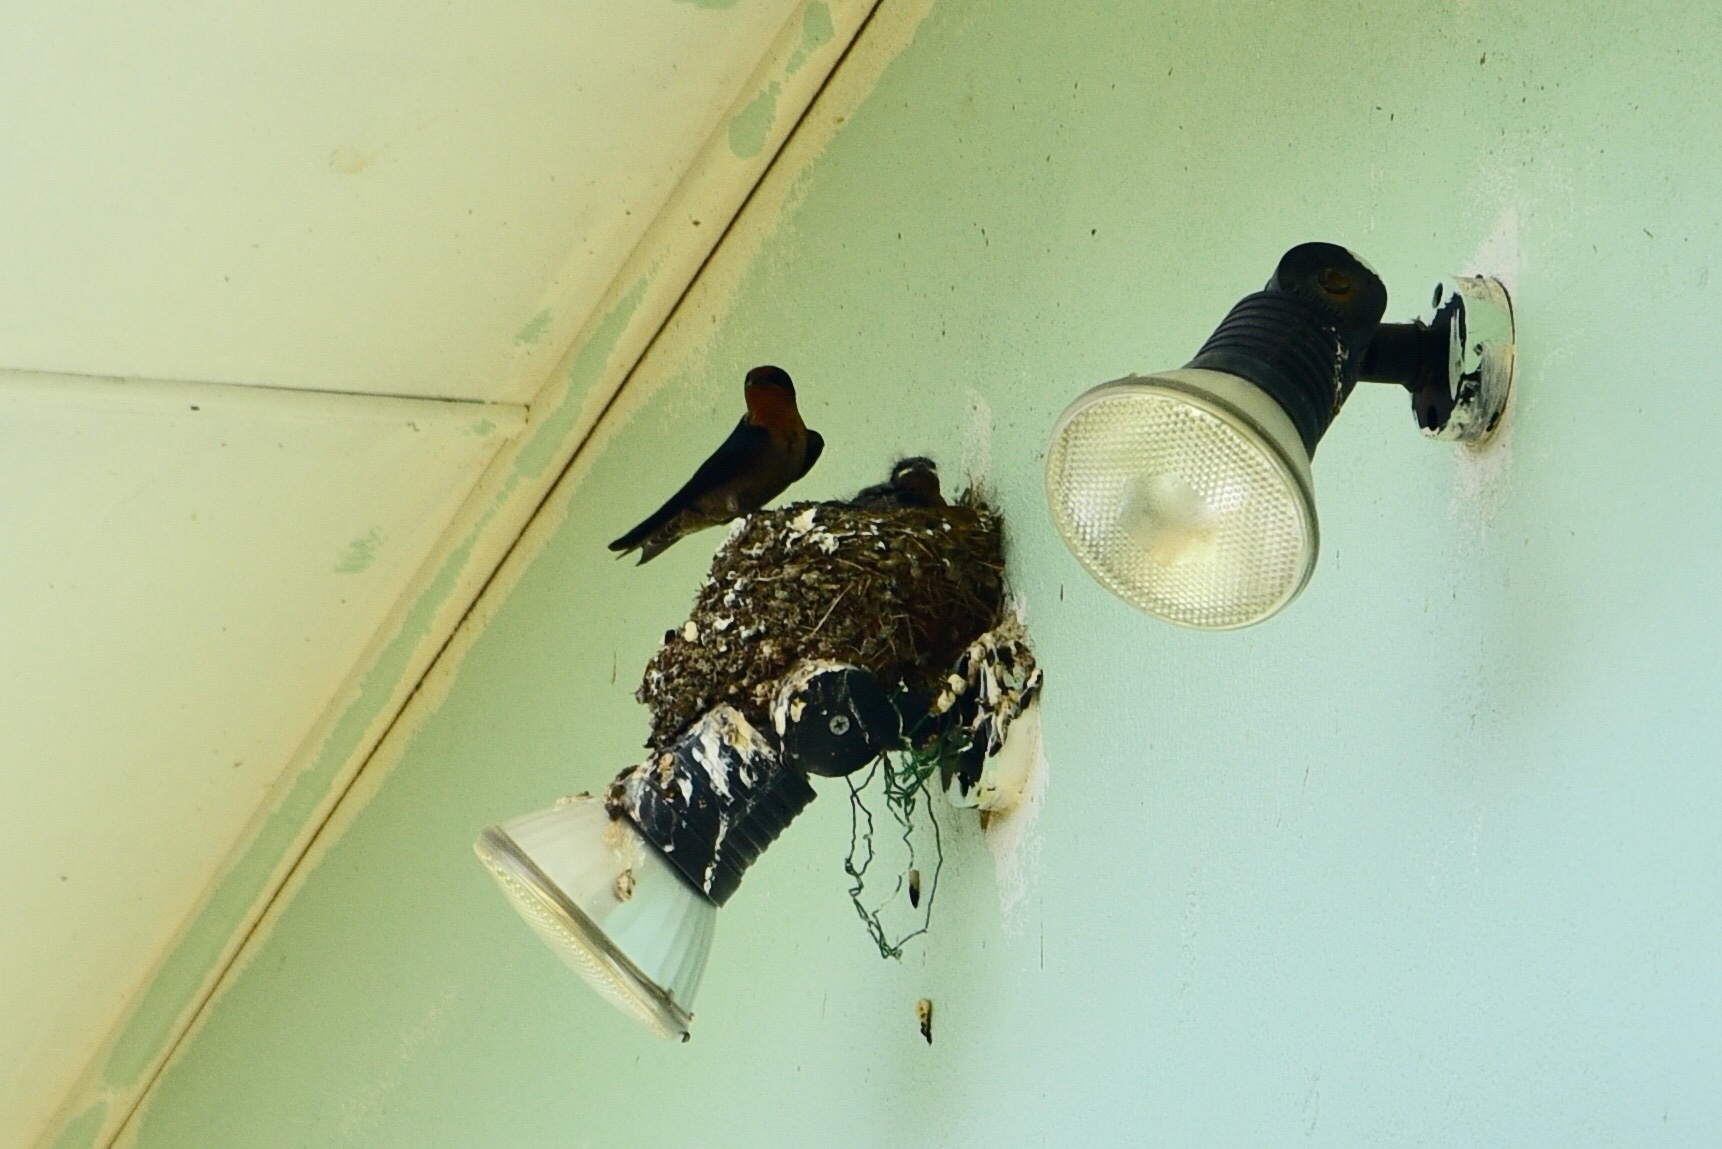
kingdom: Animalia
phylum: Chordata
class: Aves
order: Passeriformes
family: Hirundinidae
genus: Hirundo
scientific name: Hirundo tahitica
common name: Pacific swallow
